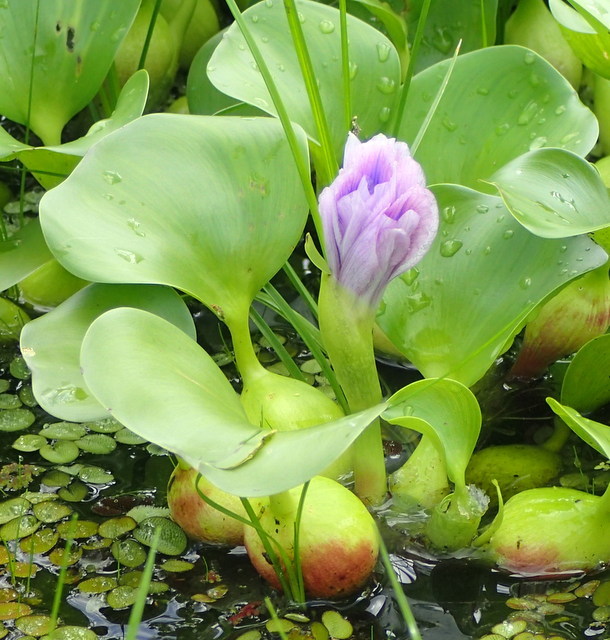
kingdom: Plantae
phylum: Tracheophyta
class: Liliopsida
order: Commelinales
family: Pontederiaceae
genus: Pontederia
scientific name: Pontederia crassipes
